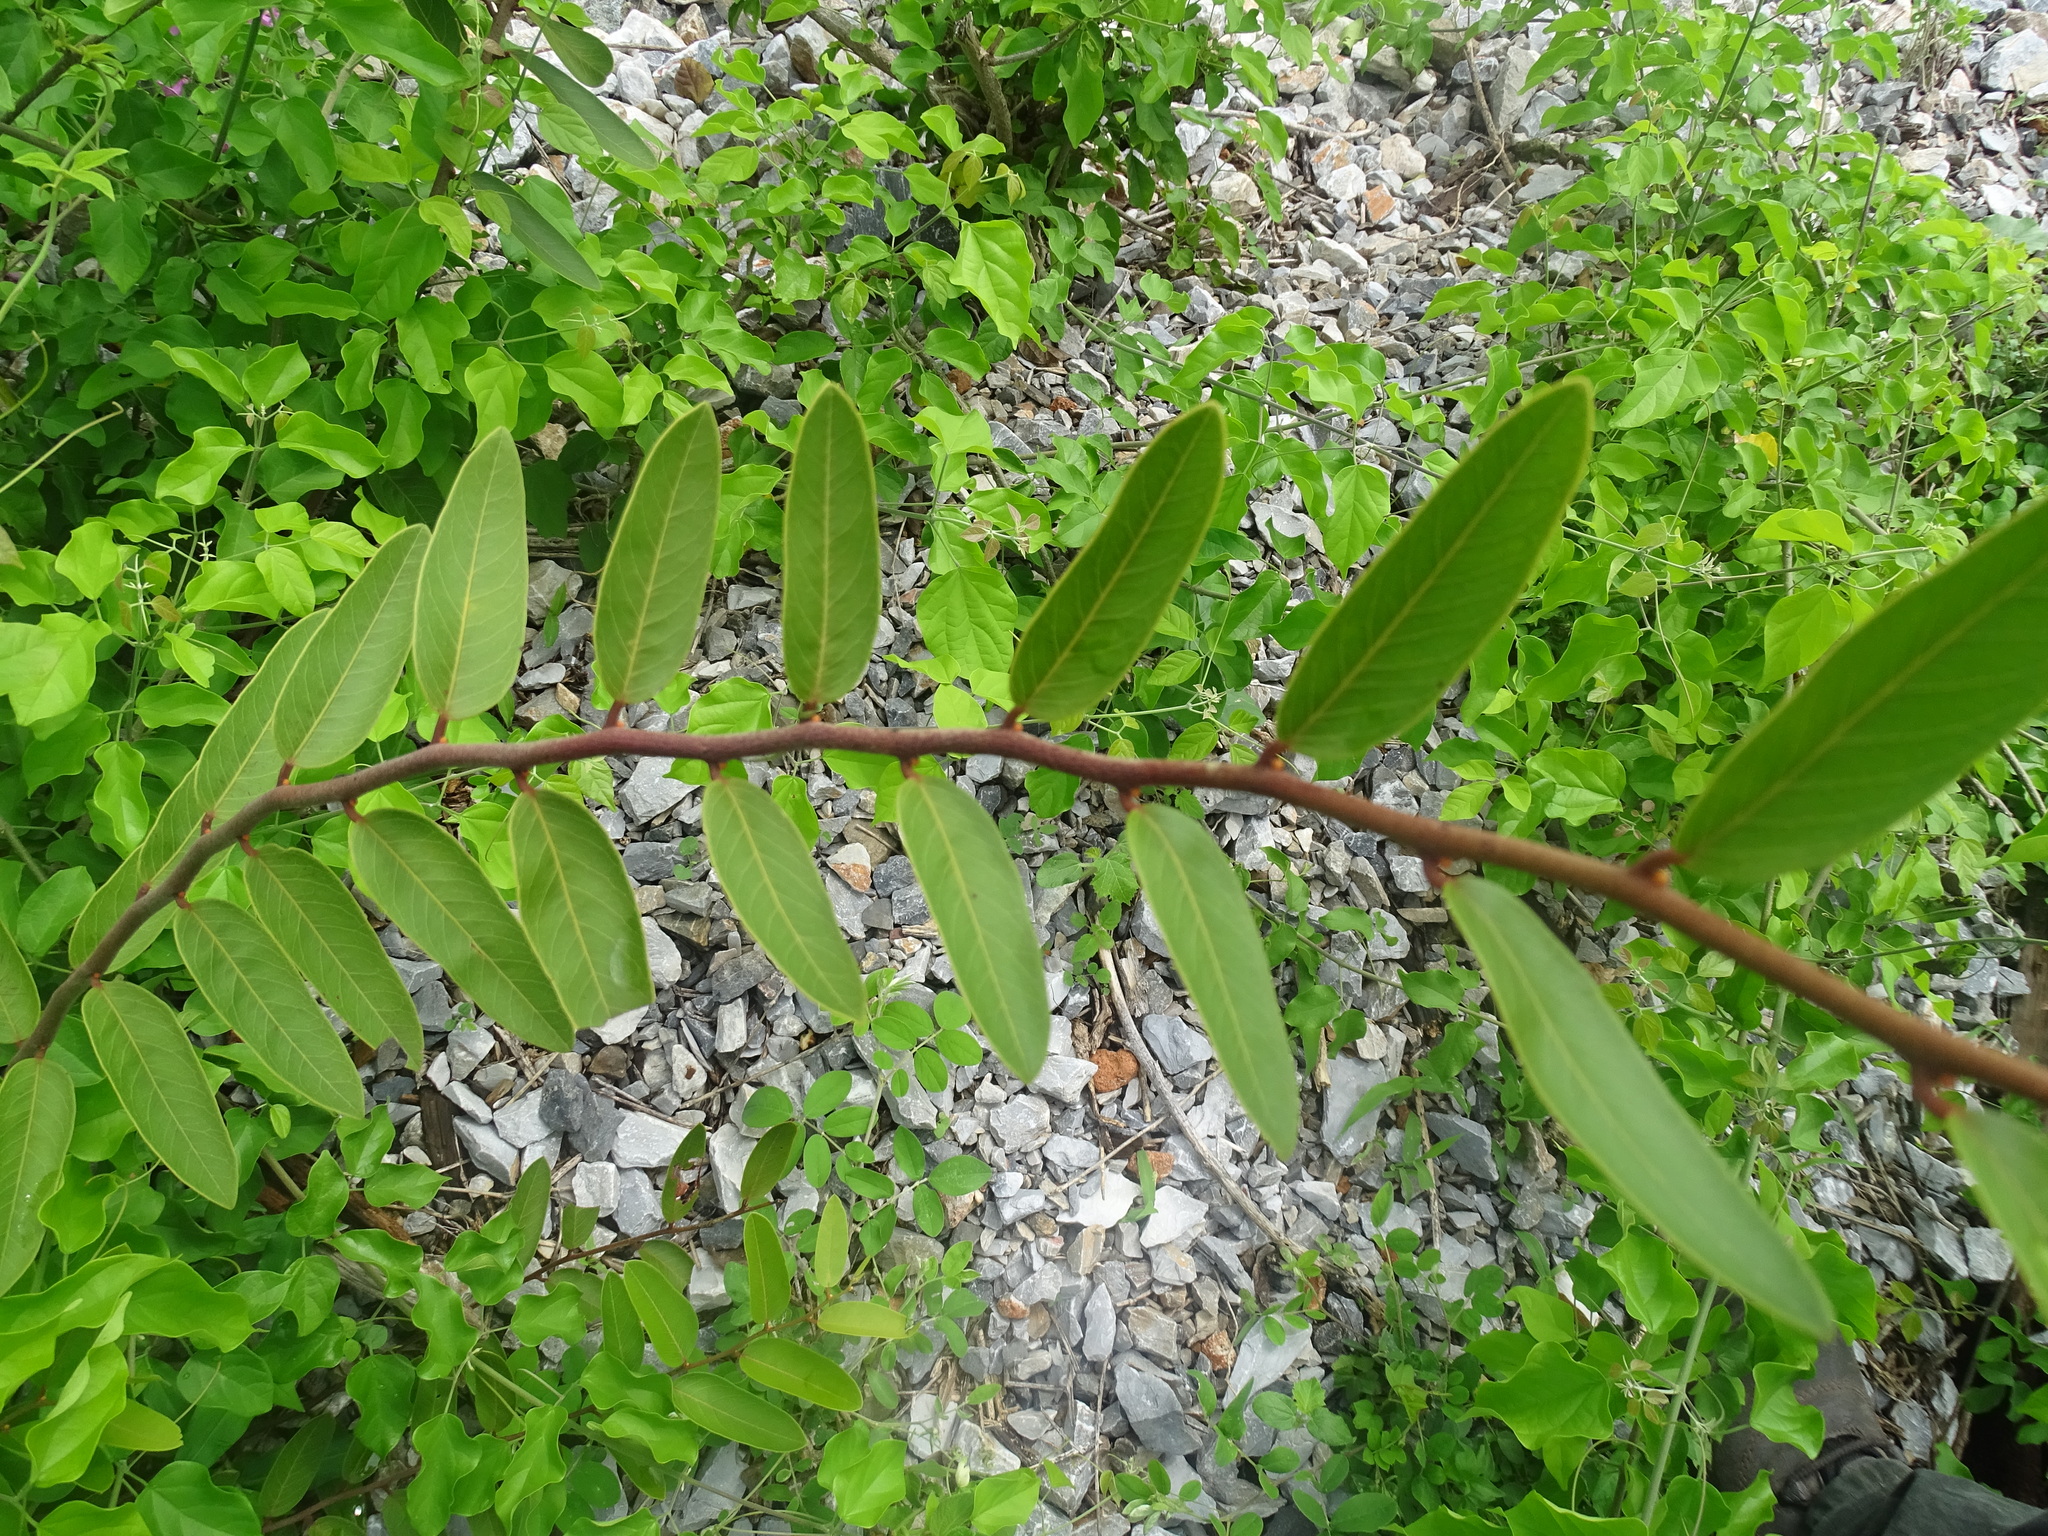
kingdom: Plantae
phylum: Tracheophyta
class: Magnoliopsida
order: Brassicales
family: Capparaceae
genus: Cynophalla
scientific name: Cynophalla flexuosa
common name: Capertree
